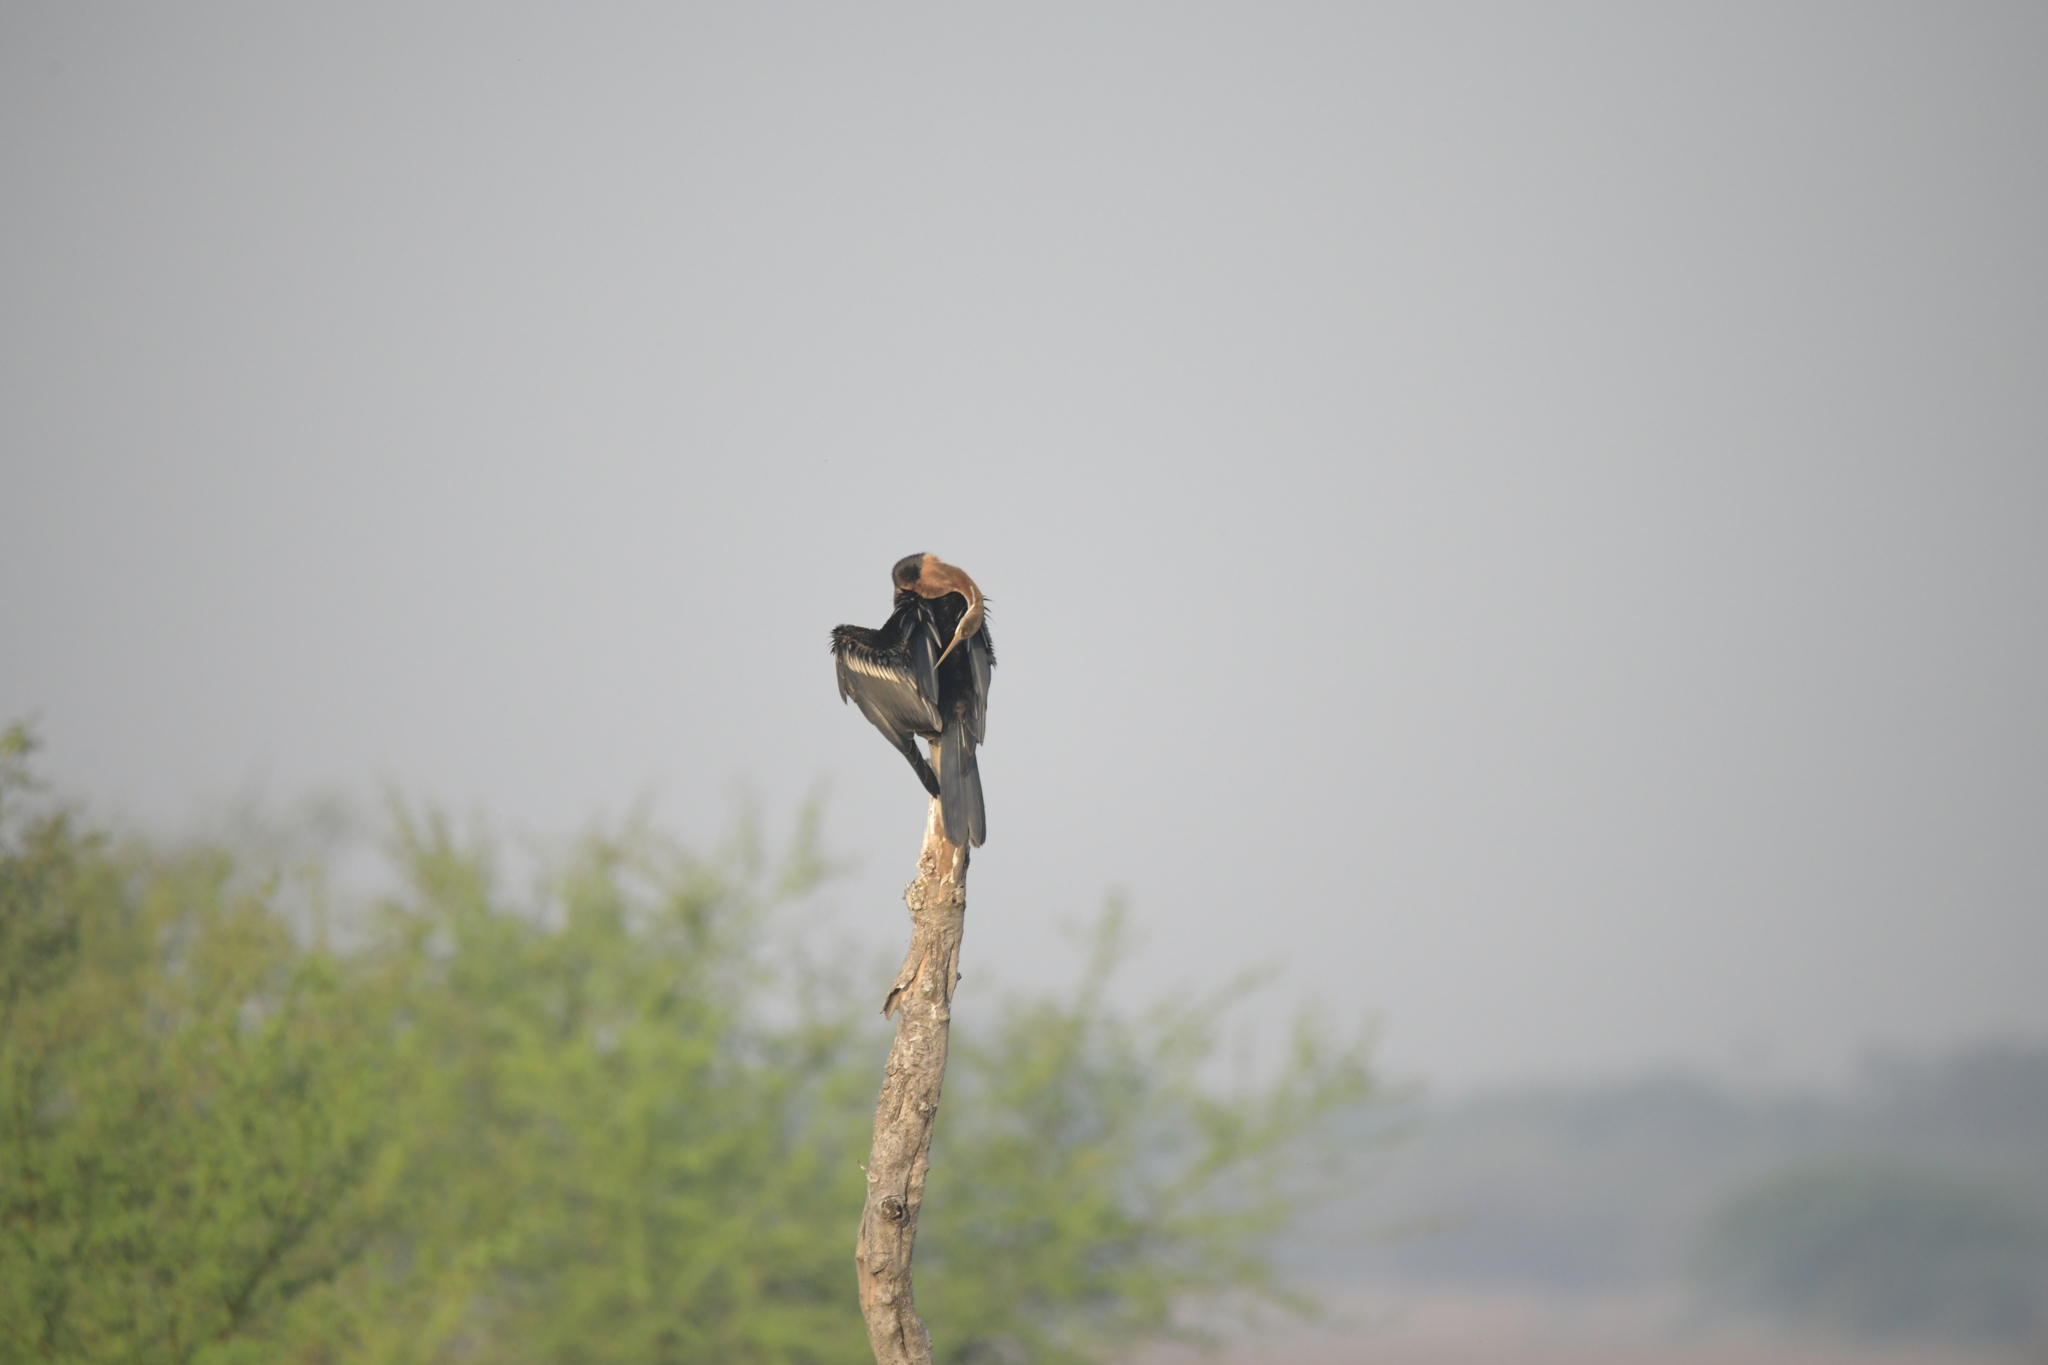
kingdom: Animalia
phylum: Chordata
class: Aves
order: Suliformes
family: Anhingidae
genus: Anhinga
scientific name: Anhinga melanogaster
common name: Oriental darter
